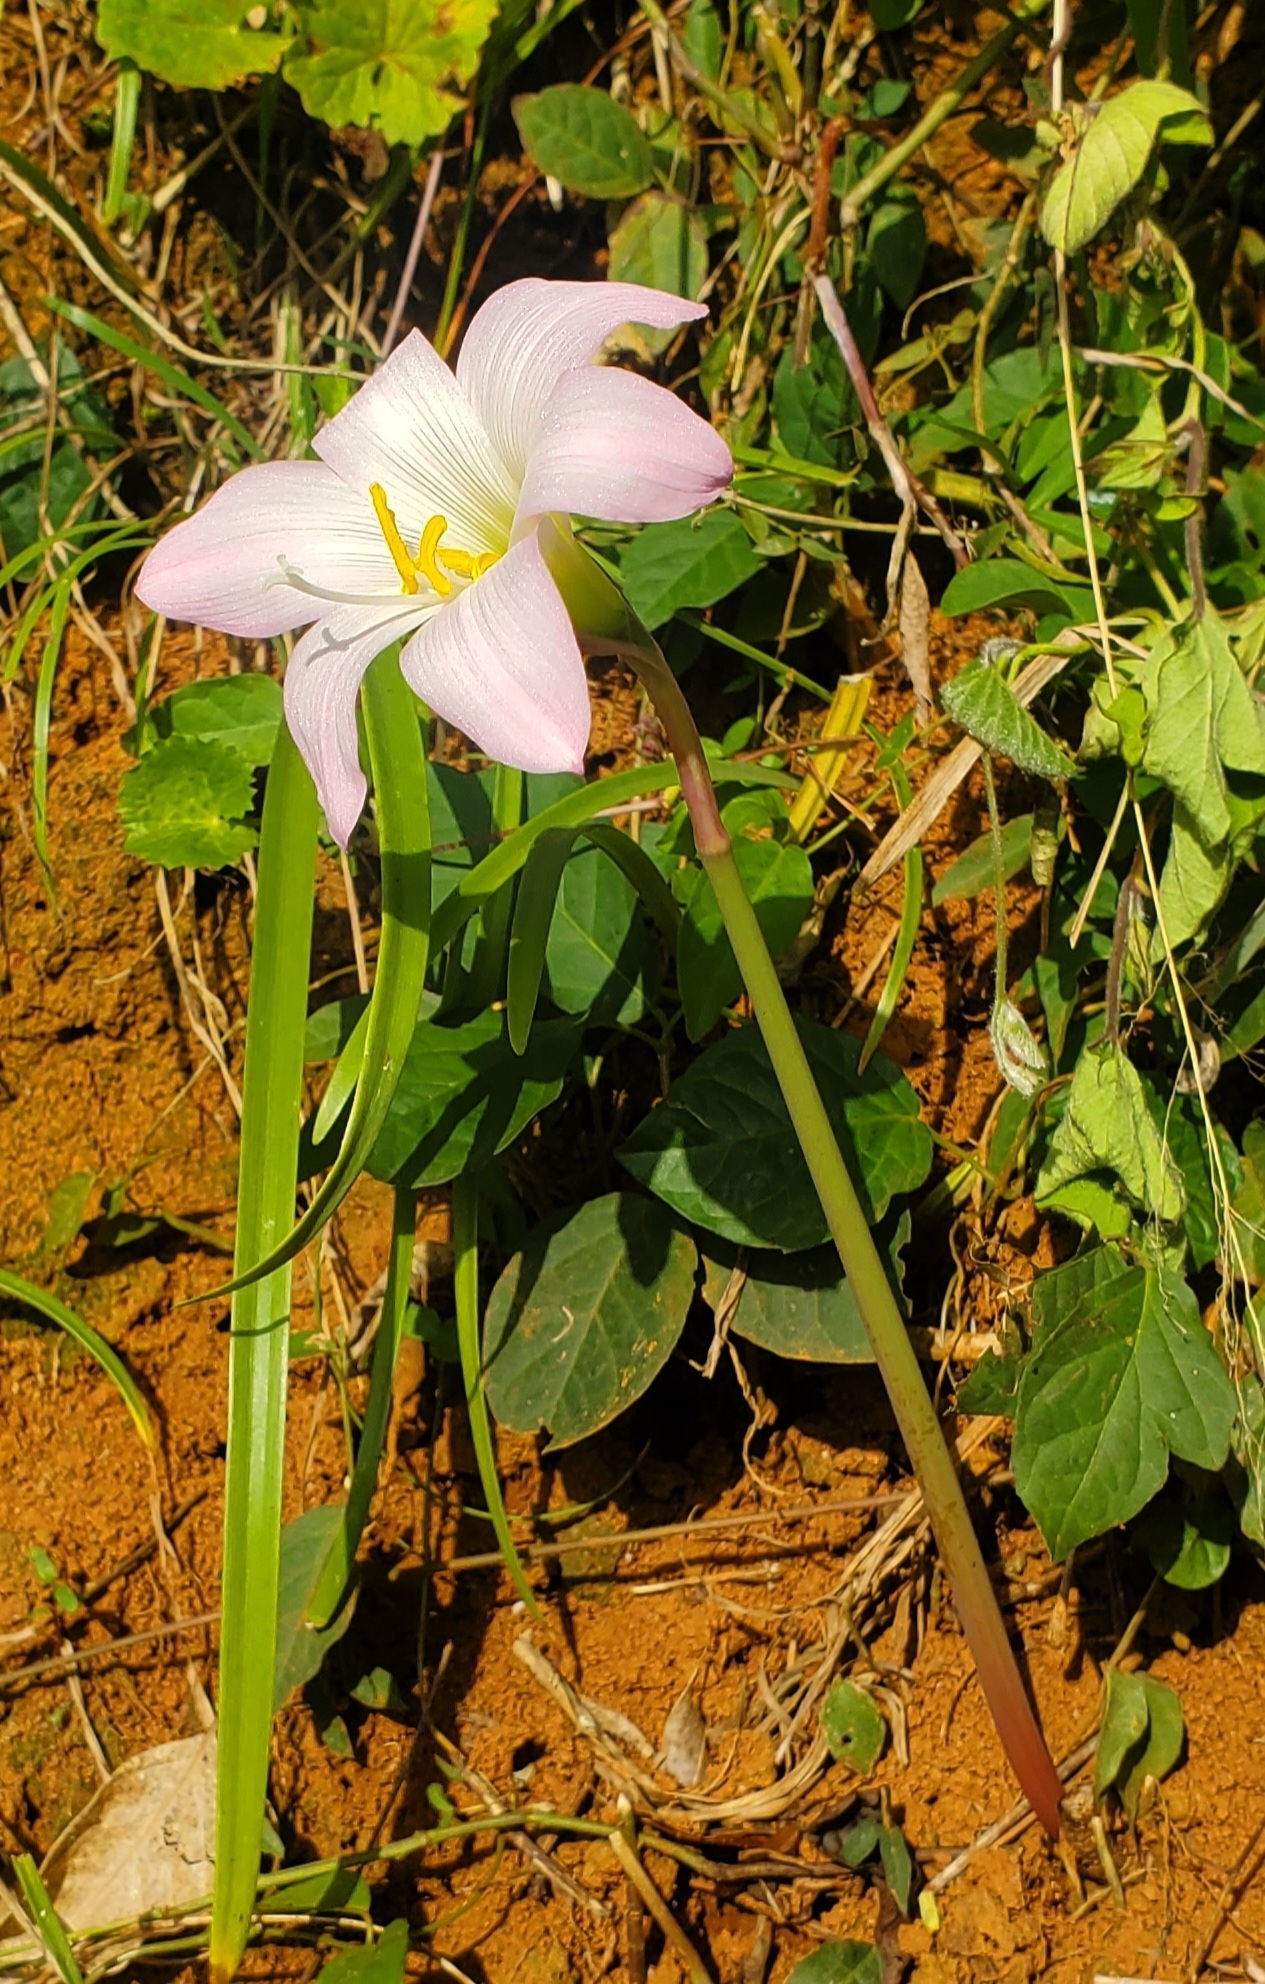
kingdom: Plantae
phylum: Tracheophyta
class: Liliopsida
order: Asparagales
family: Amaryllidaceae
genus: Zephyranthes
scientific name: Zephyranthes robusta
